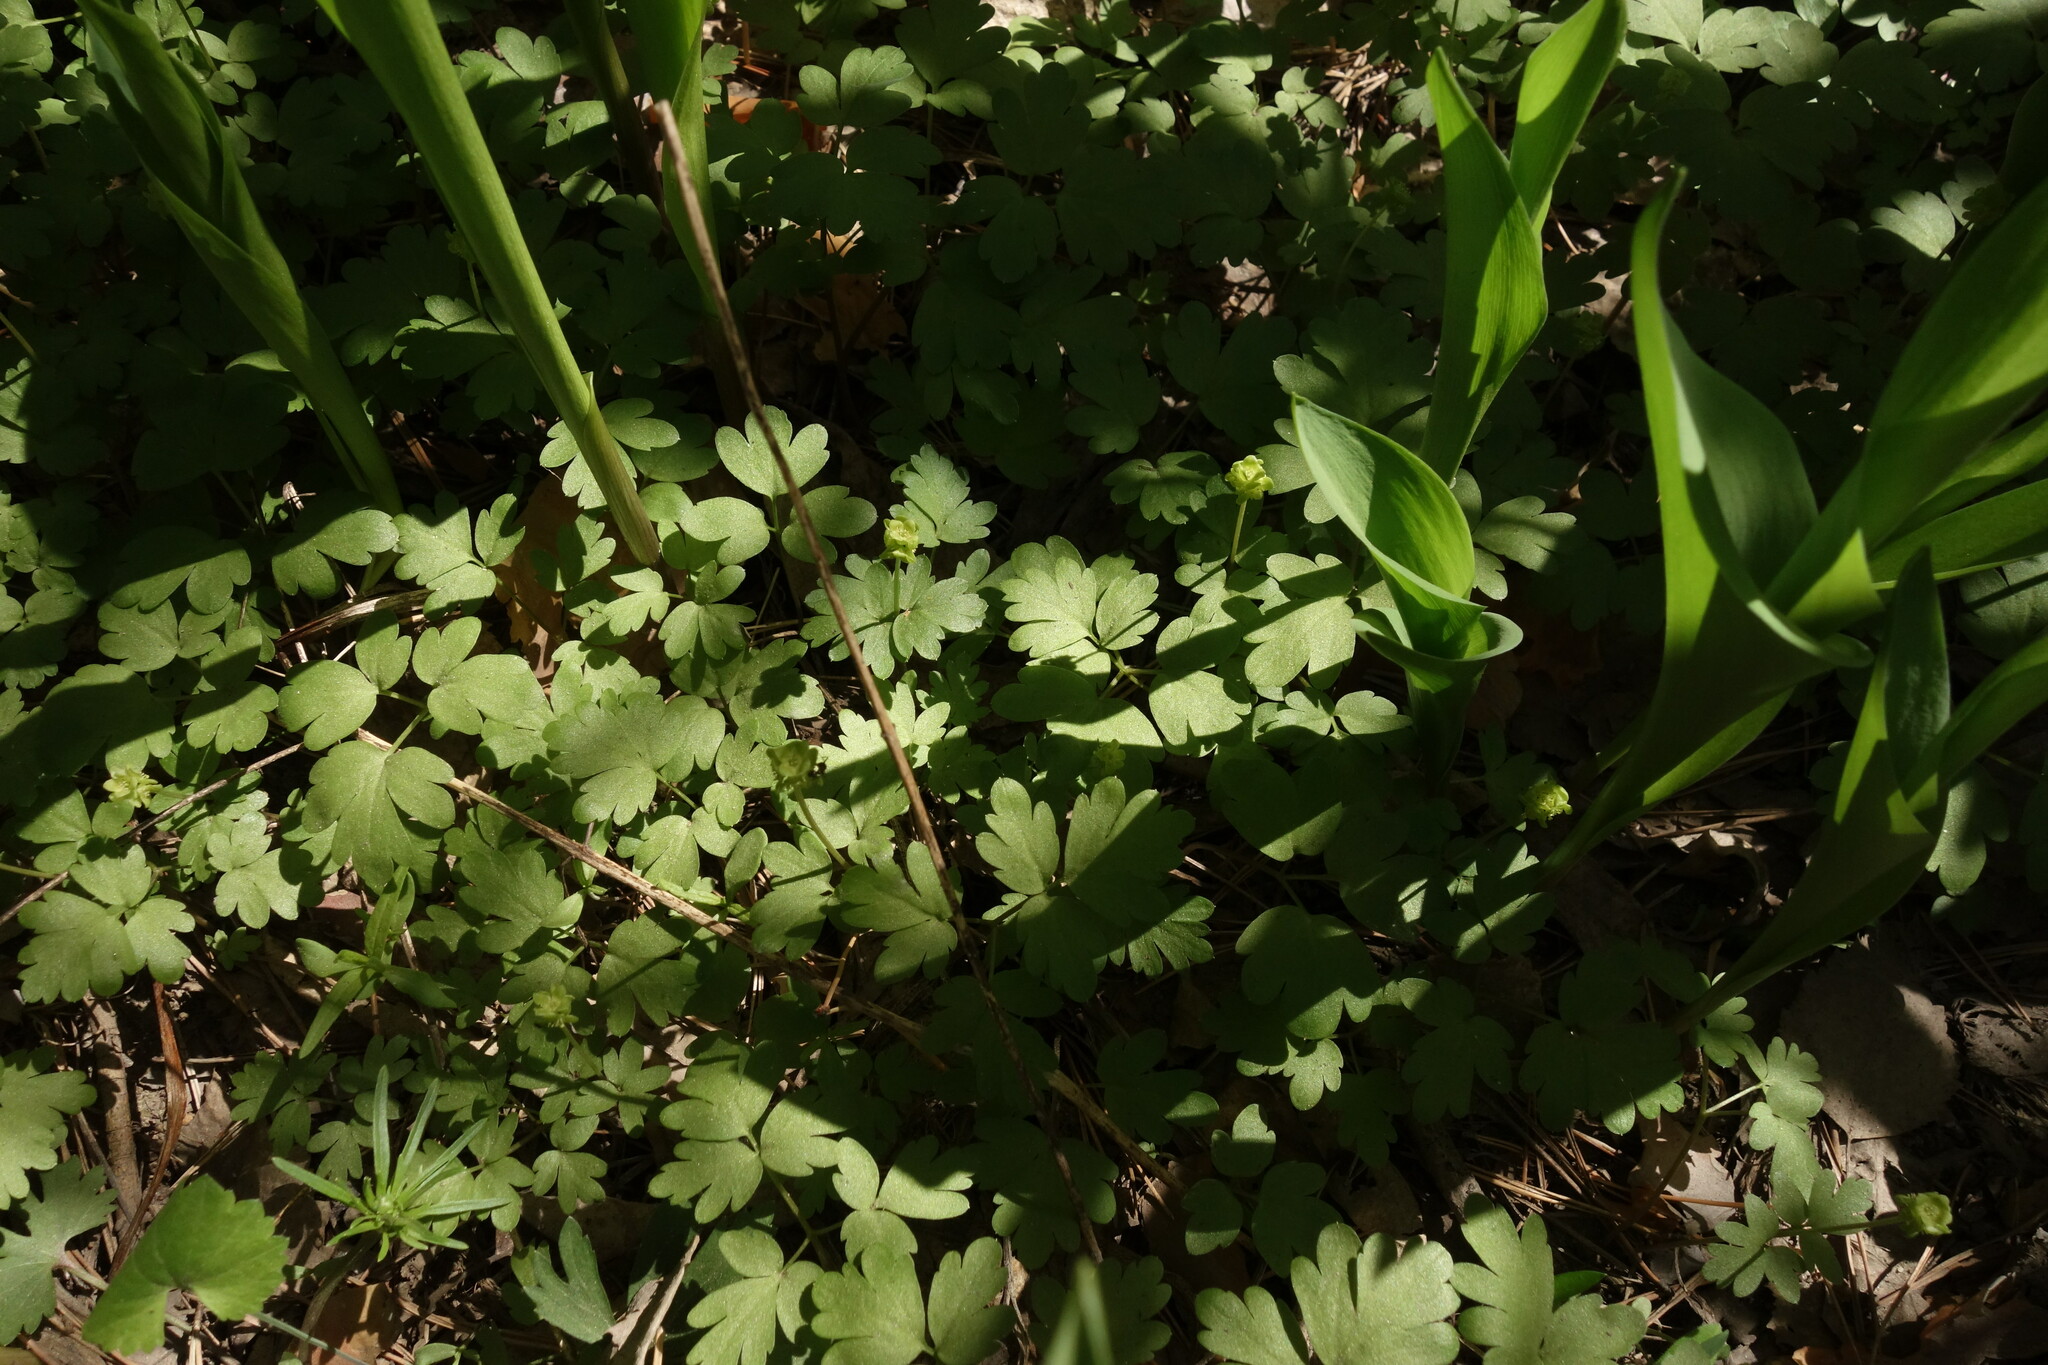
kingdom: Plantae
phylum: Tracheophyta
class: Magnoliopsida
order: Dipsacales
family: Viburnaceae
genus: Adoxa
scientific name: Adoxa moschatellina
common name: Moschatel
